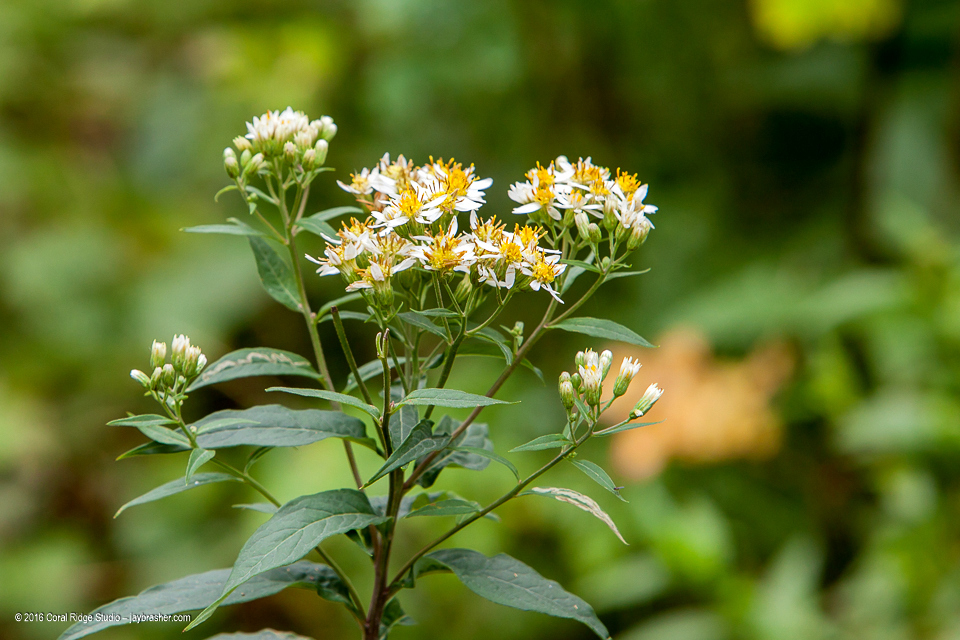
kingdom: Plantae
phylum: Tracheophyta
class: Magnoliopsida
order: Asterales
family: Asteraceae
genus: Doellingeria
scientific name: Doellingeria umbellata
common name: Flat-top white aster
